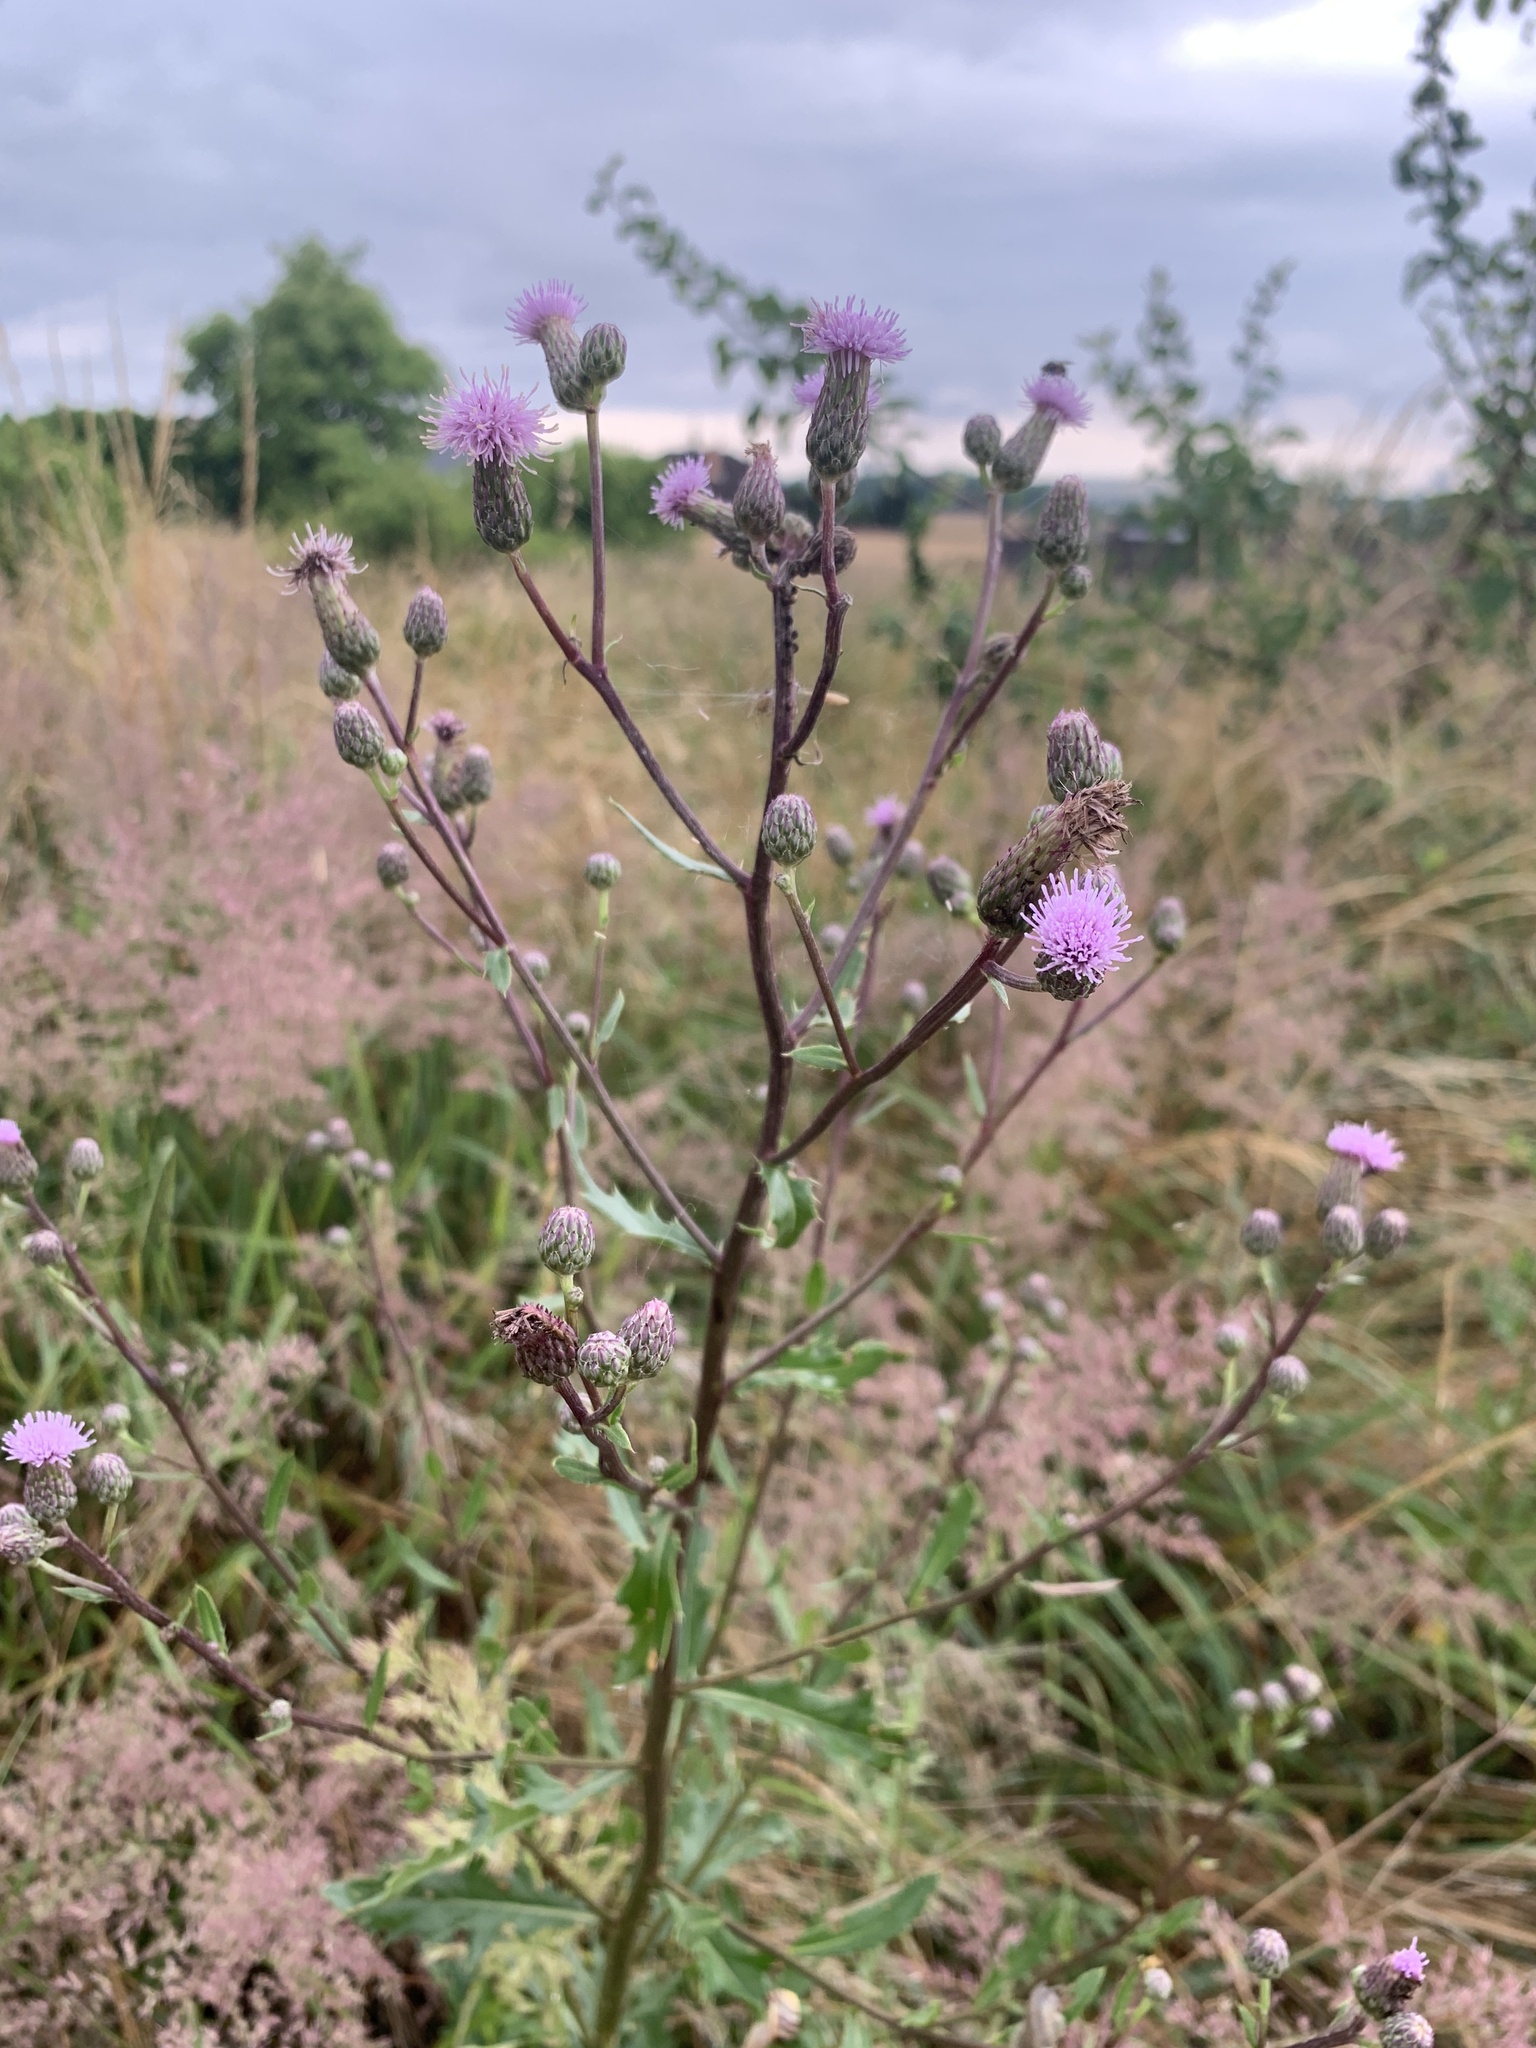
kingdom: Plantae
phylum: Tracheophyta
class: Magnoliopsida
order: Asterales
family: Asteraceae
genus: Cirsium
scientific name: Cirsium arvense
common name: Creeping thistle
